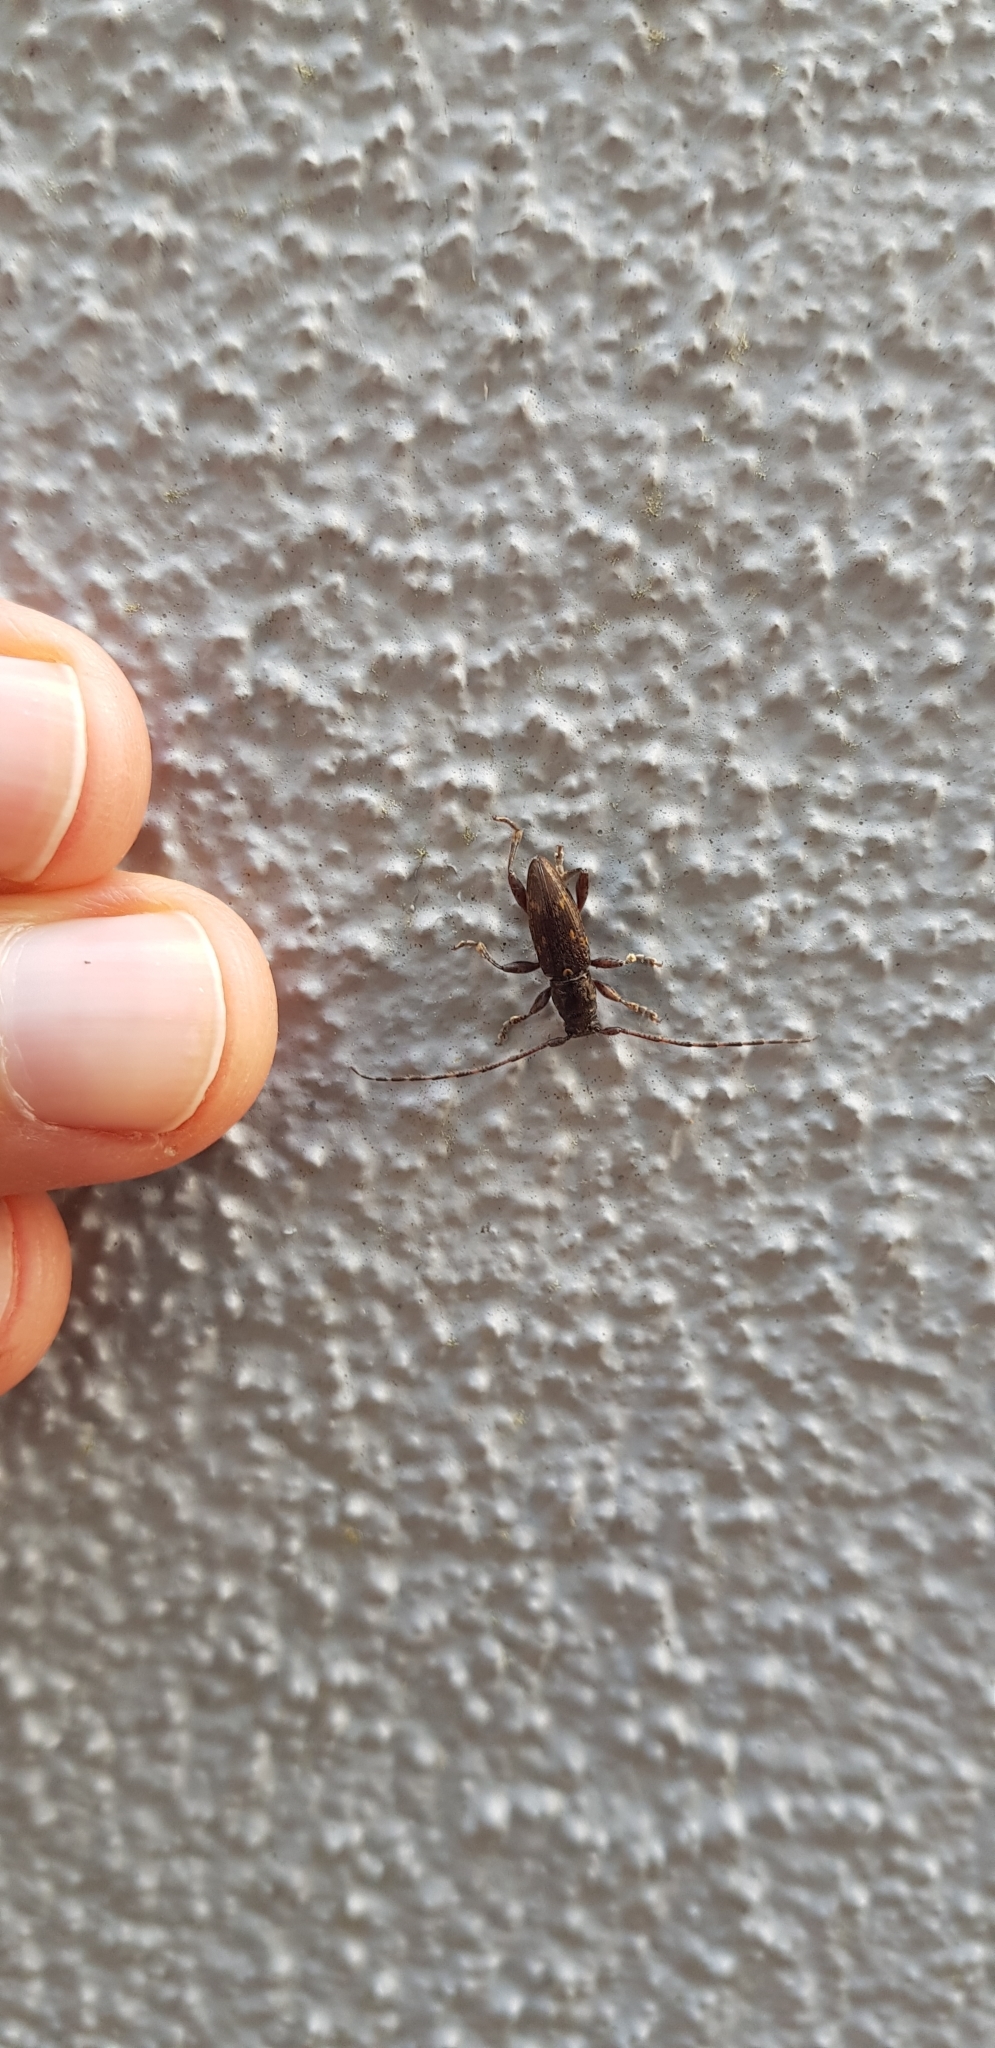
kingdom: Animalia
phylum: Arthropoda
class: Insecta
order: Coleoptera
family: Cerambycidae
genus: Xylotoles
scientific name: Xylotoles griseus
